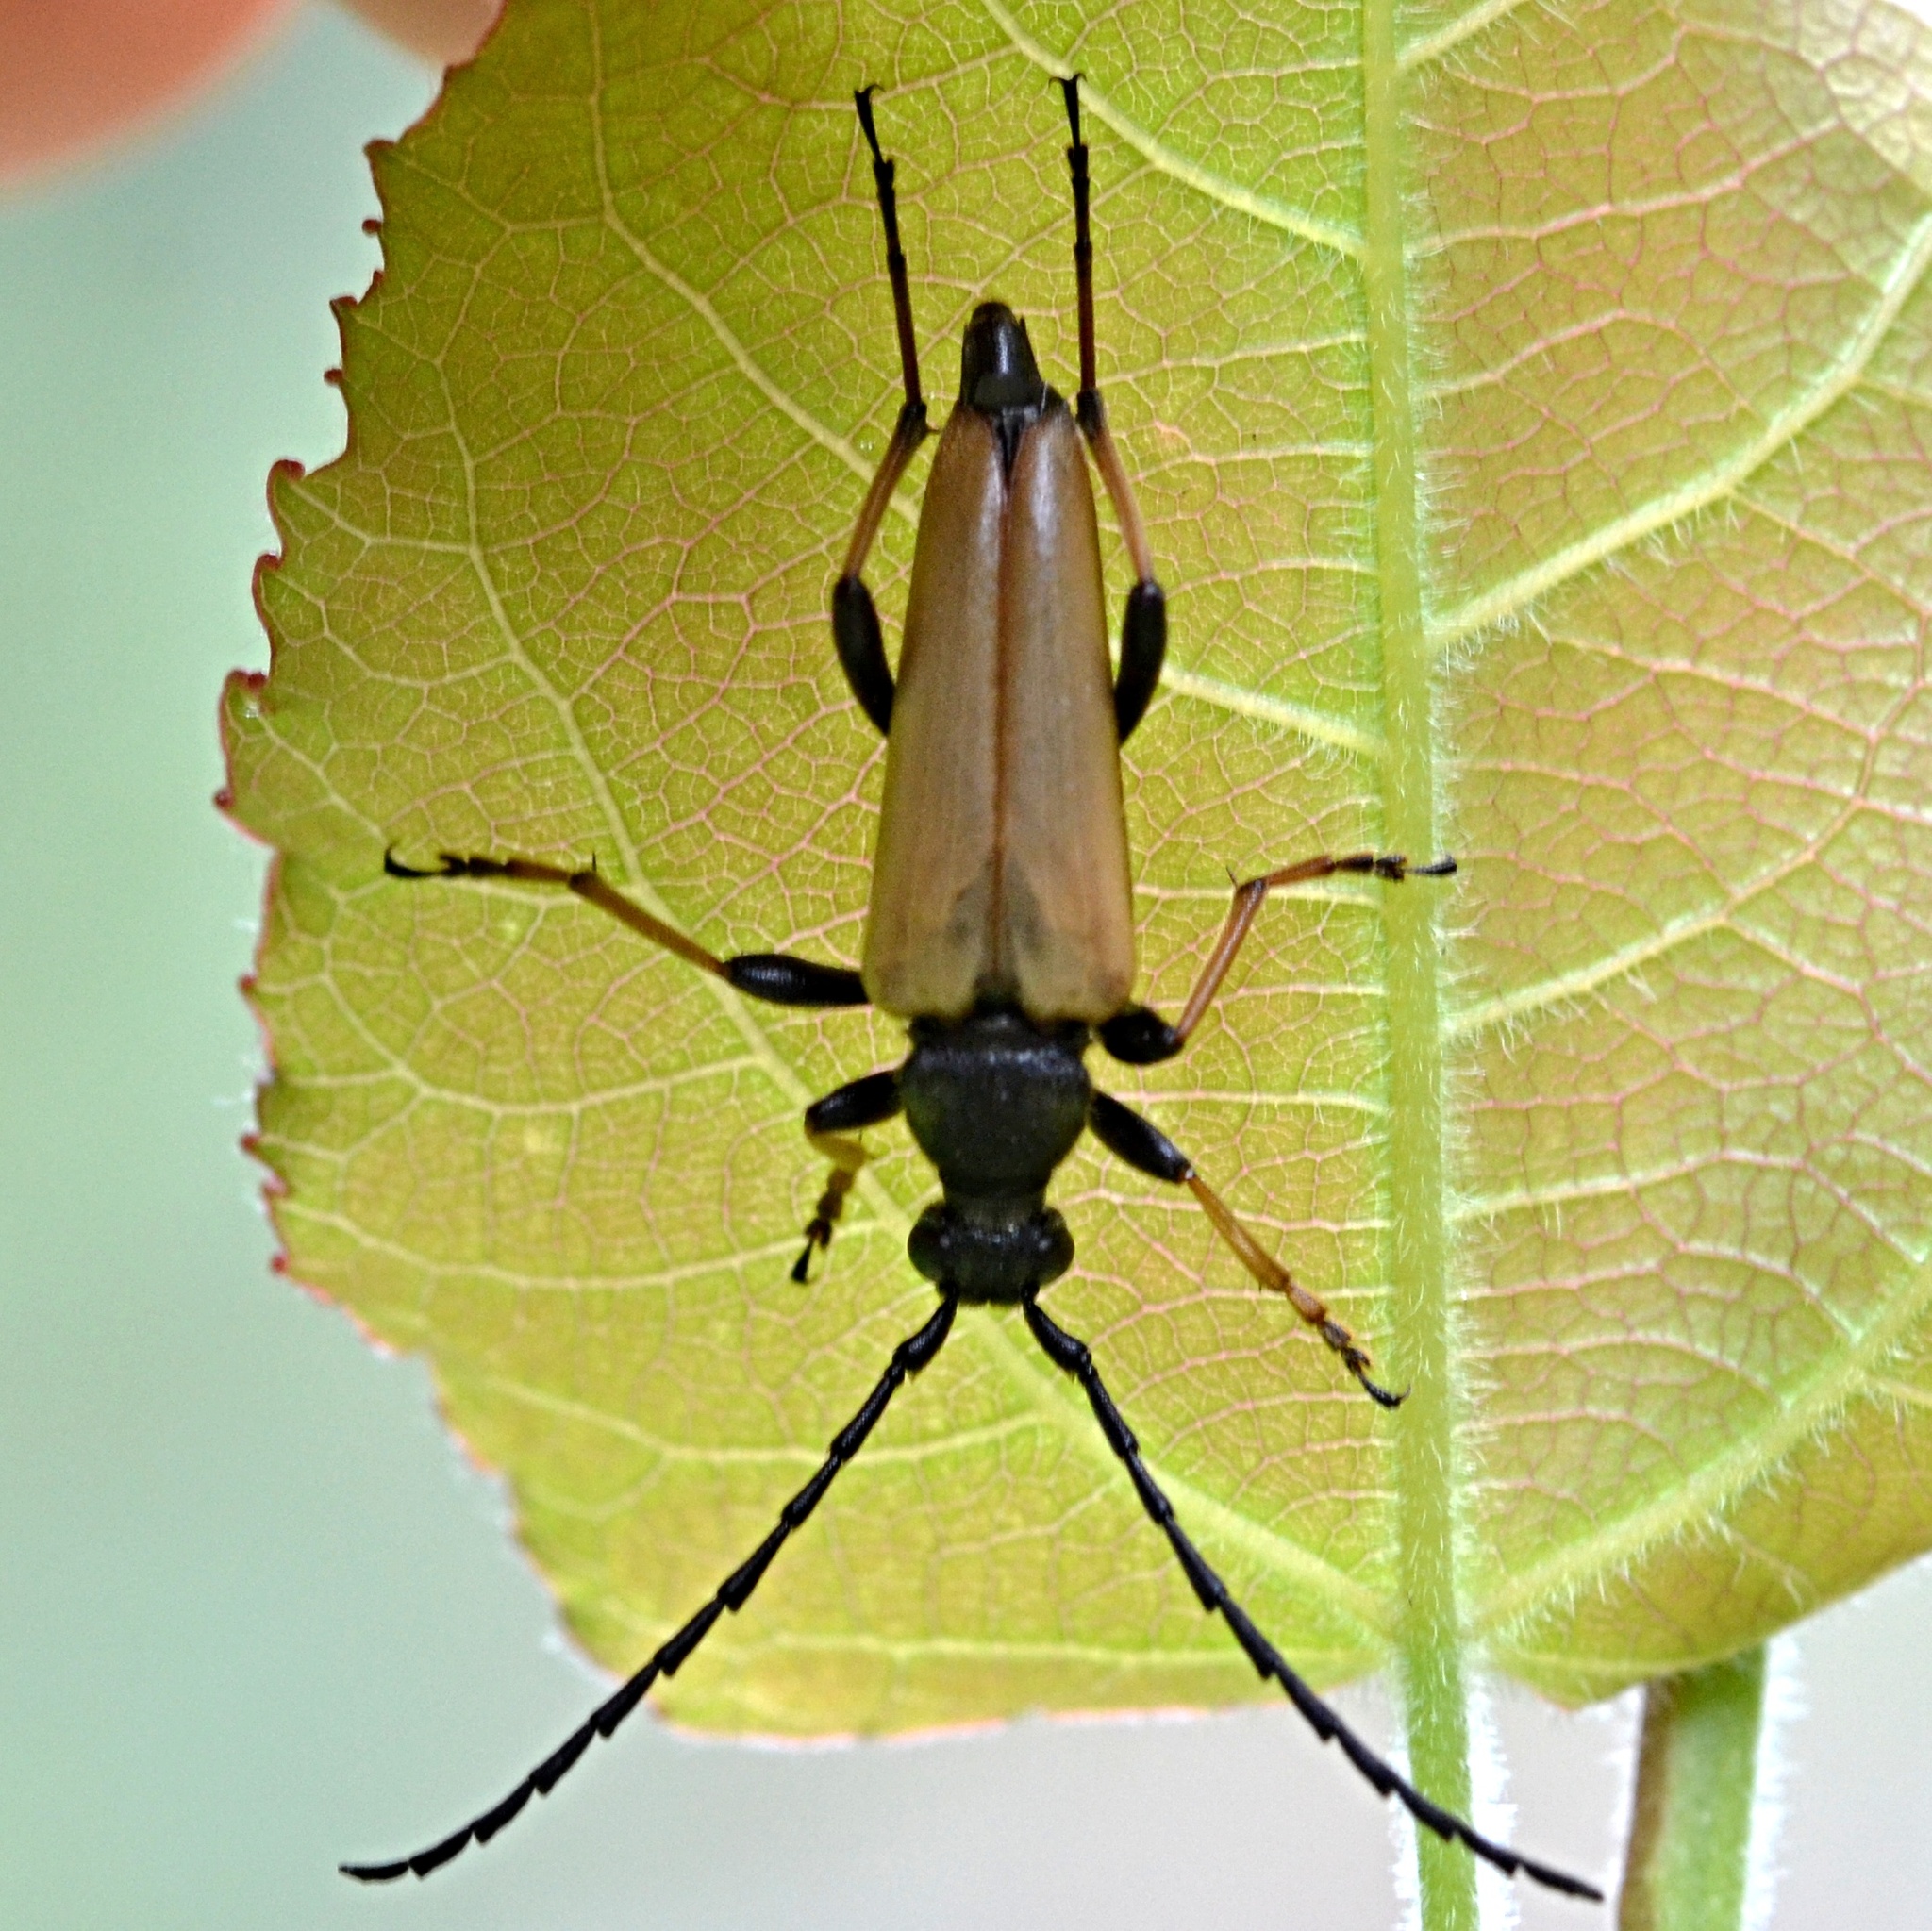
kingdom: Animalia
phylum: Arthropoda
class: Insecta
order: Coleoptera
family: Cerambycidae
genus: Stictoleptura
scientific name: Stictoleptura rubra
